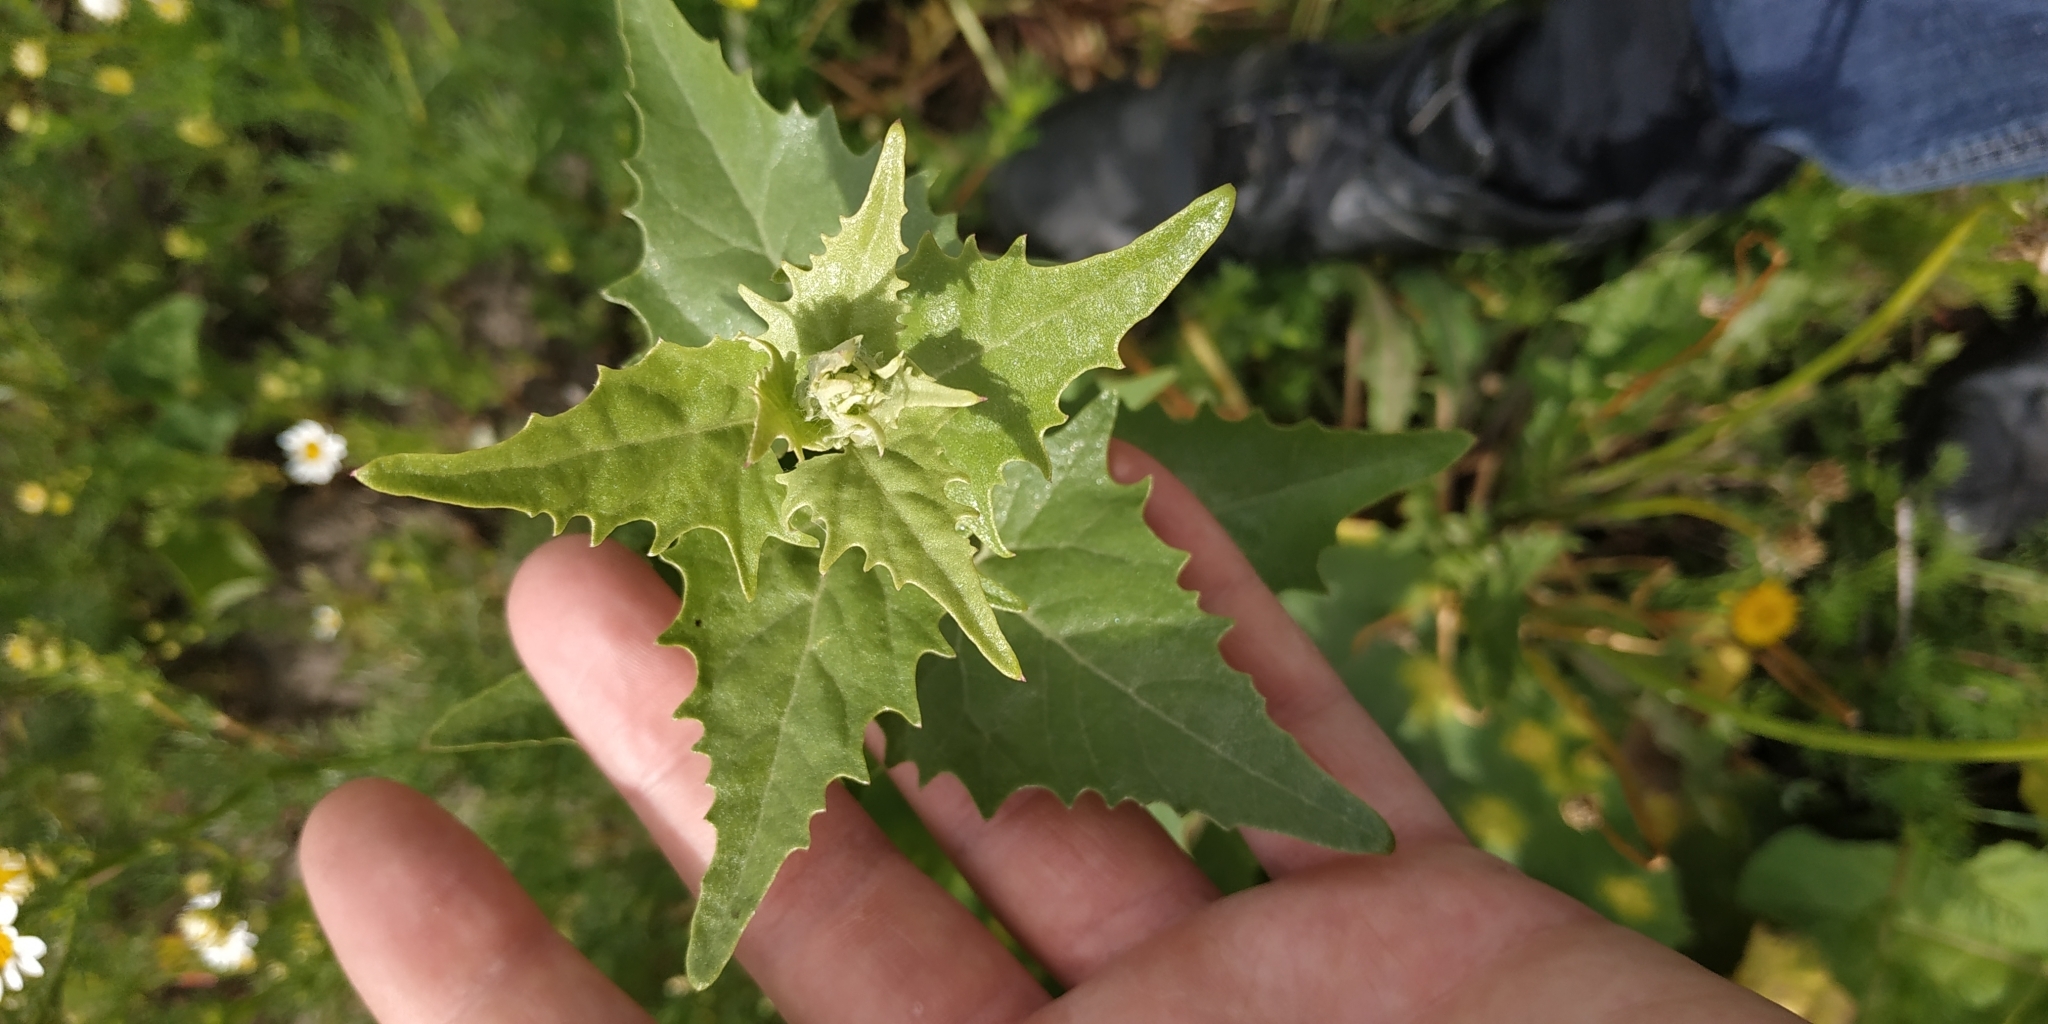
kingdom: Plantae
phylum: Tracheophyta
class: Magnoliopsida
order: Caryophyllales
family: Amaranthaceae
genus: Atriplex
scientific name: Atriplex sagittata
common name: Purple orache
